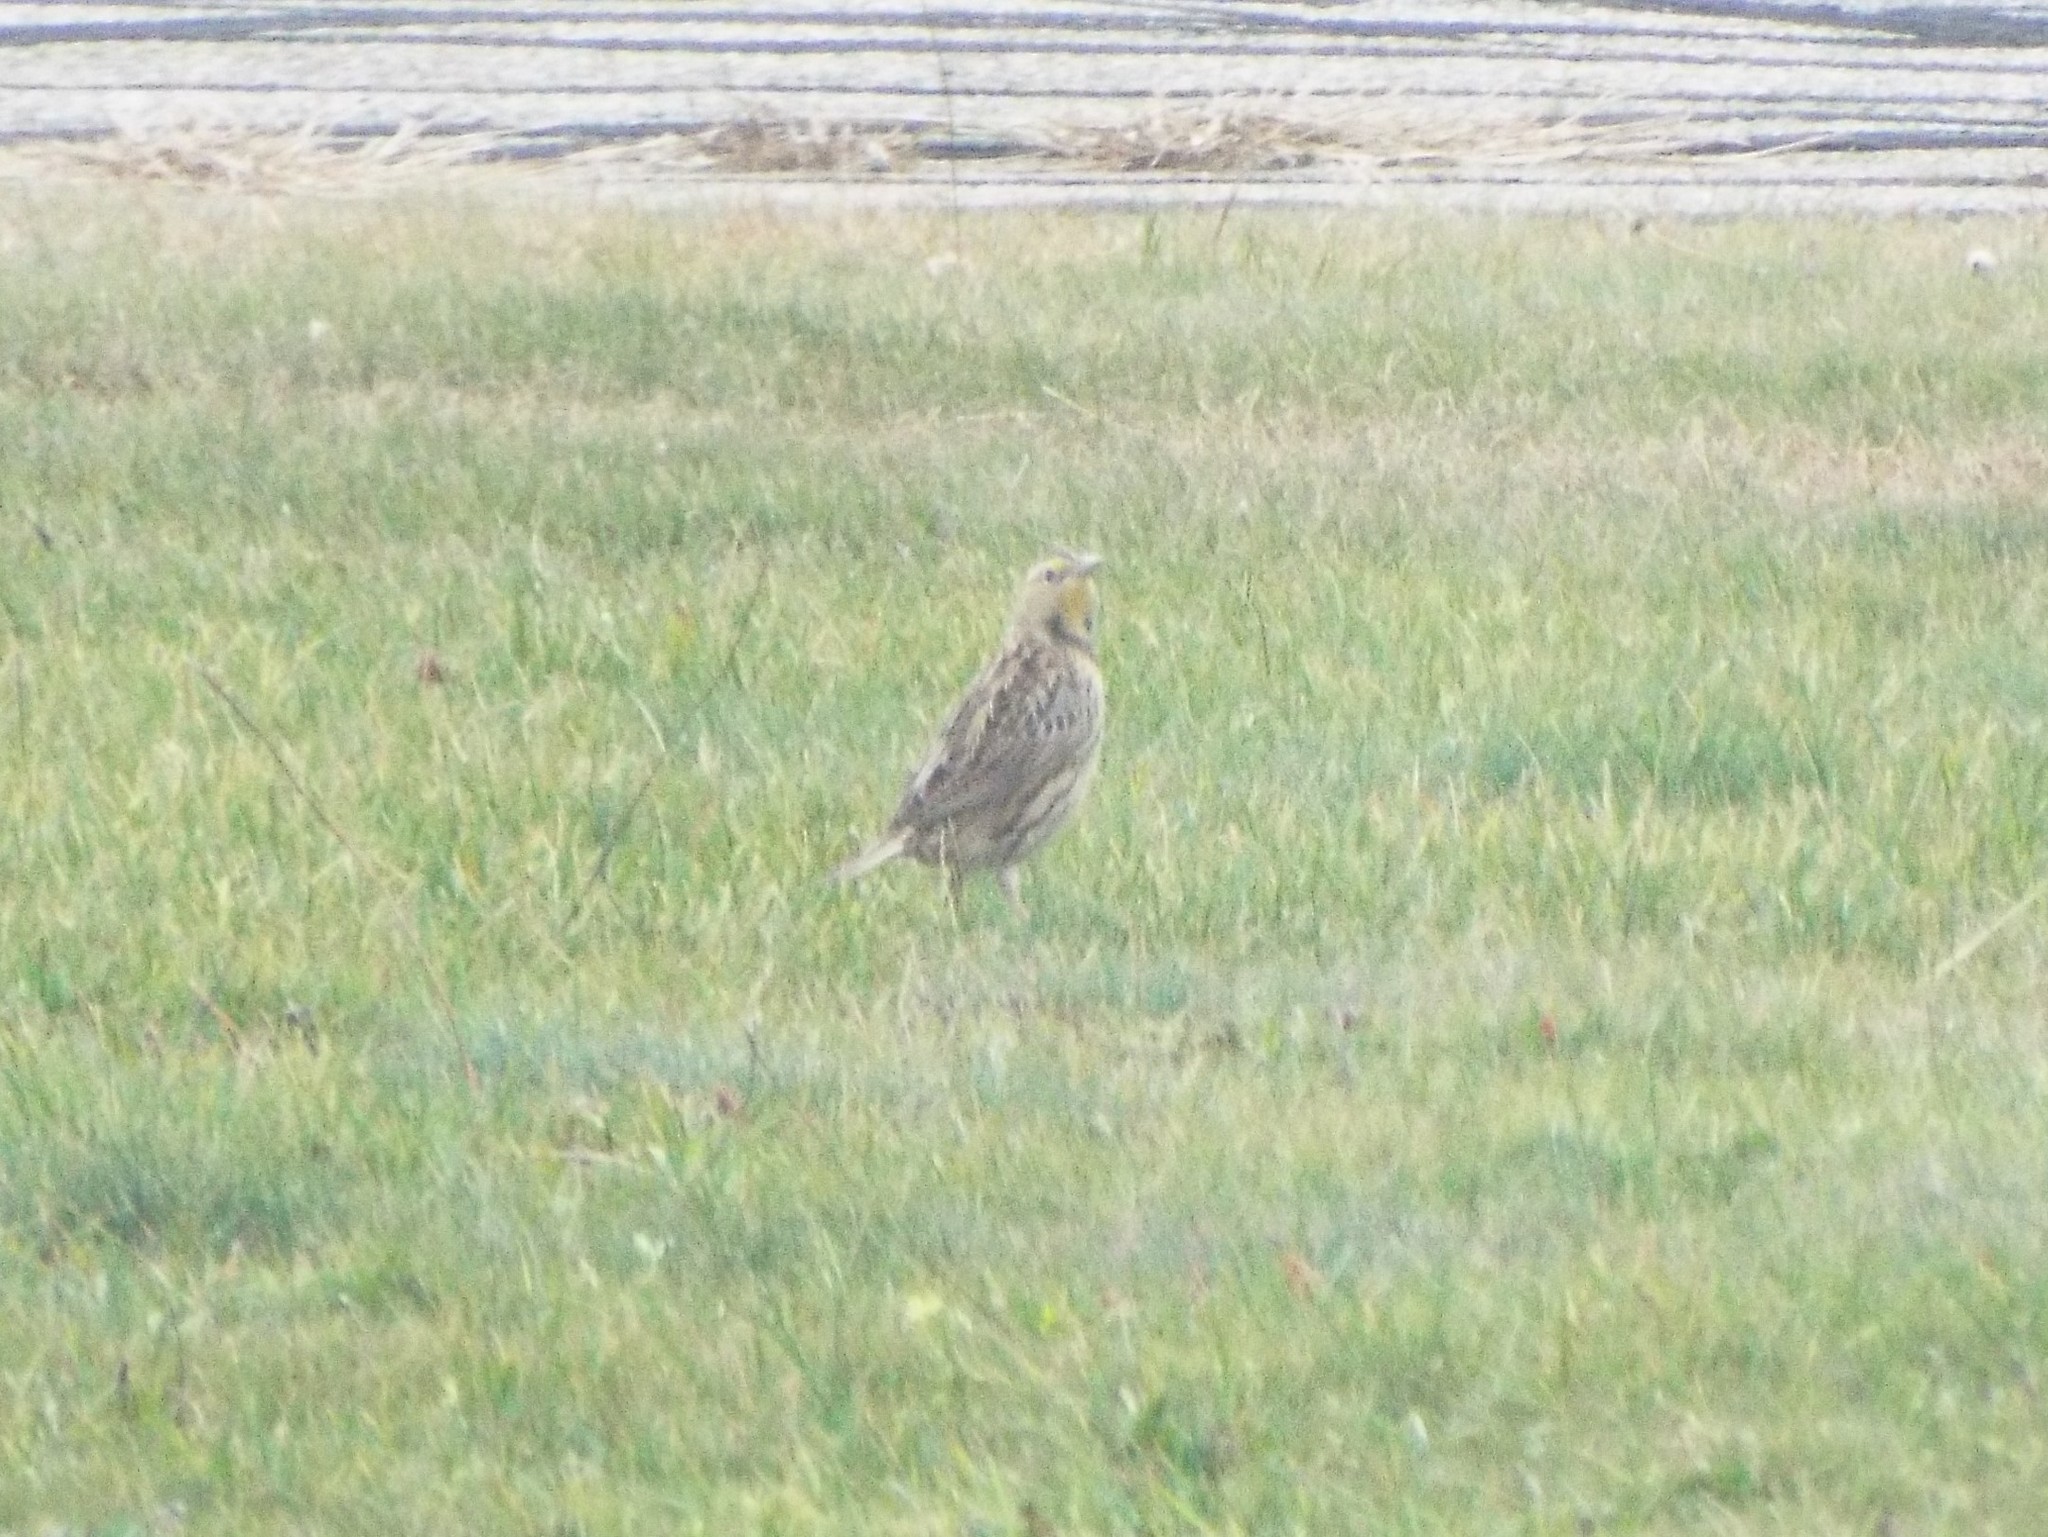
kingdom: Animalia
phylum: Chordata
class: Aves
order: Passeriformes
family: Icteridae
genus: Sturnella
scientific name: Sturnella magna
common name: Eastern meadowlark
